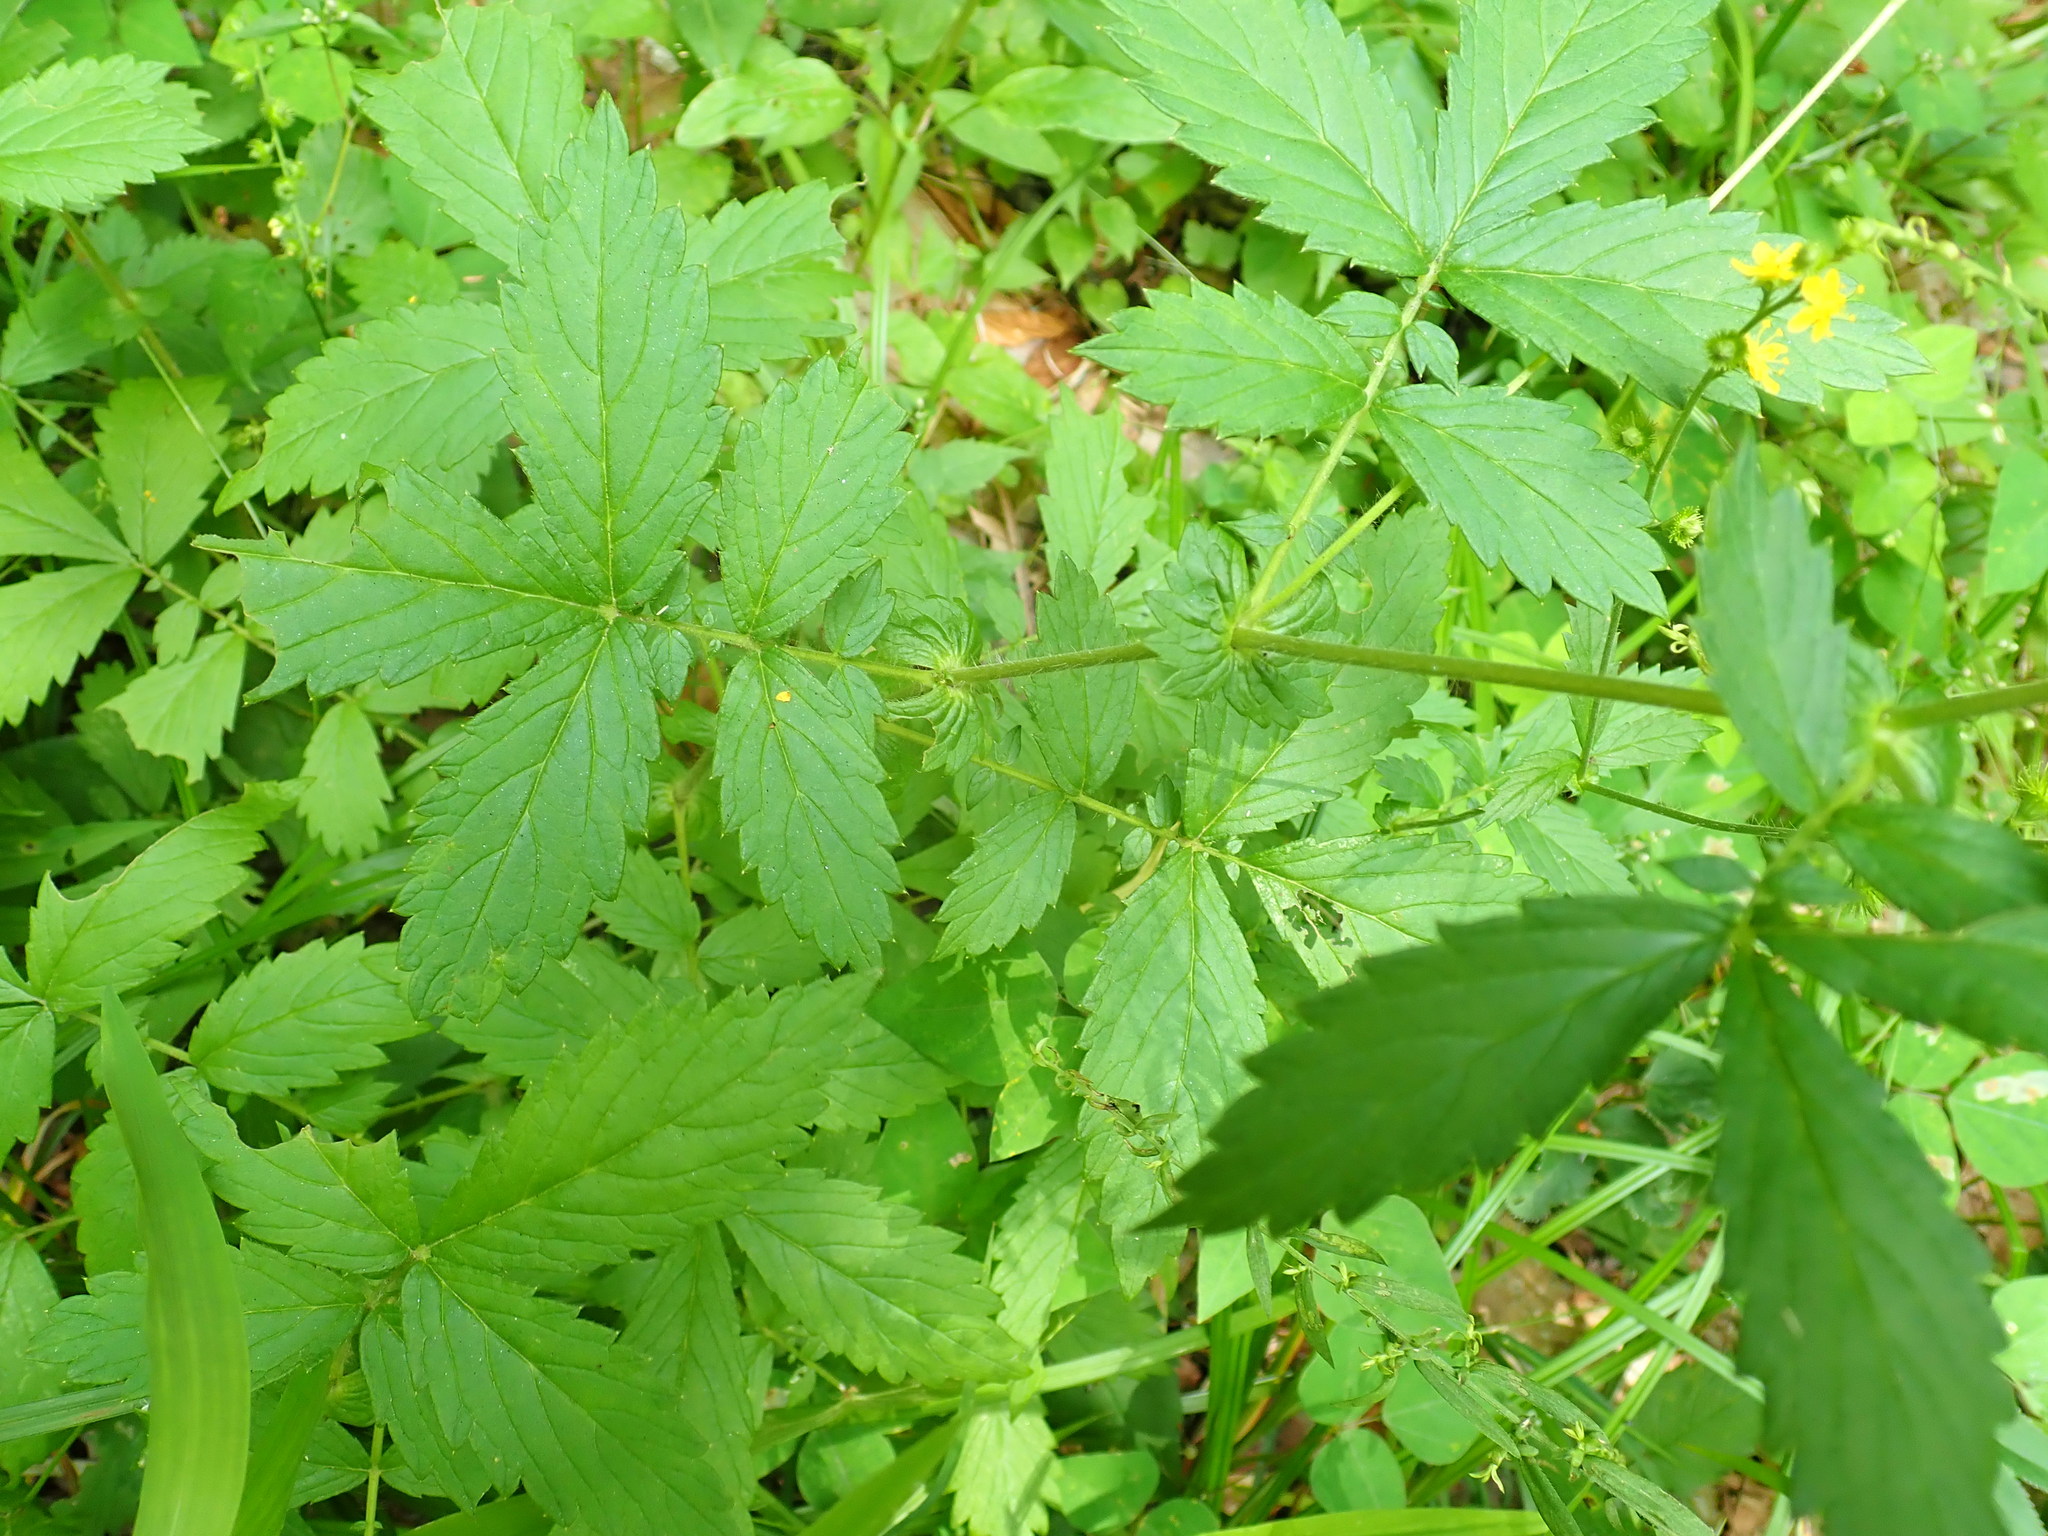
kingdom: Plantae
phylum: Tracheophyta
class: Magnoliopsida
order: Rosales
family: Rosaceae
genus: Agrimonia
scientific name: Agrimonia
